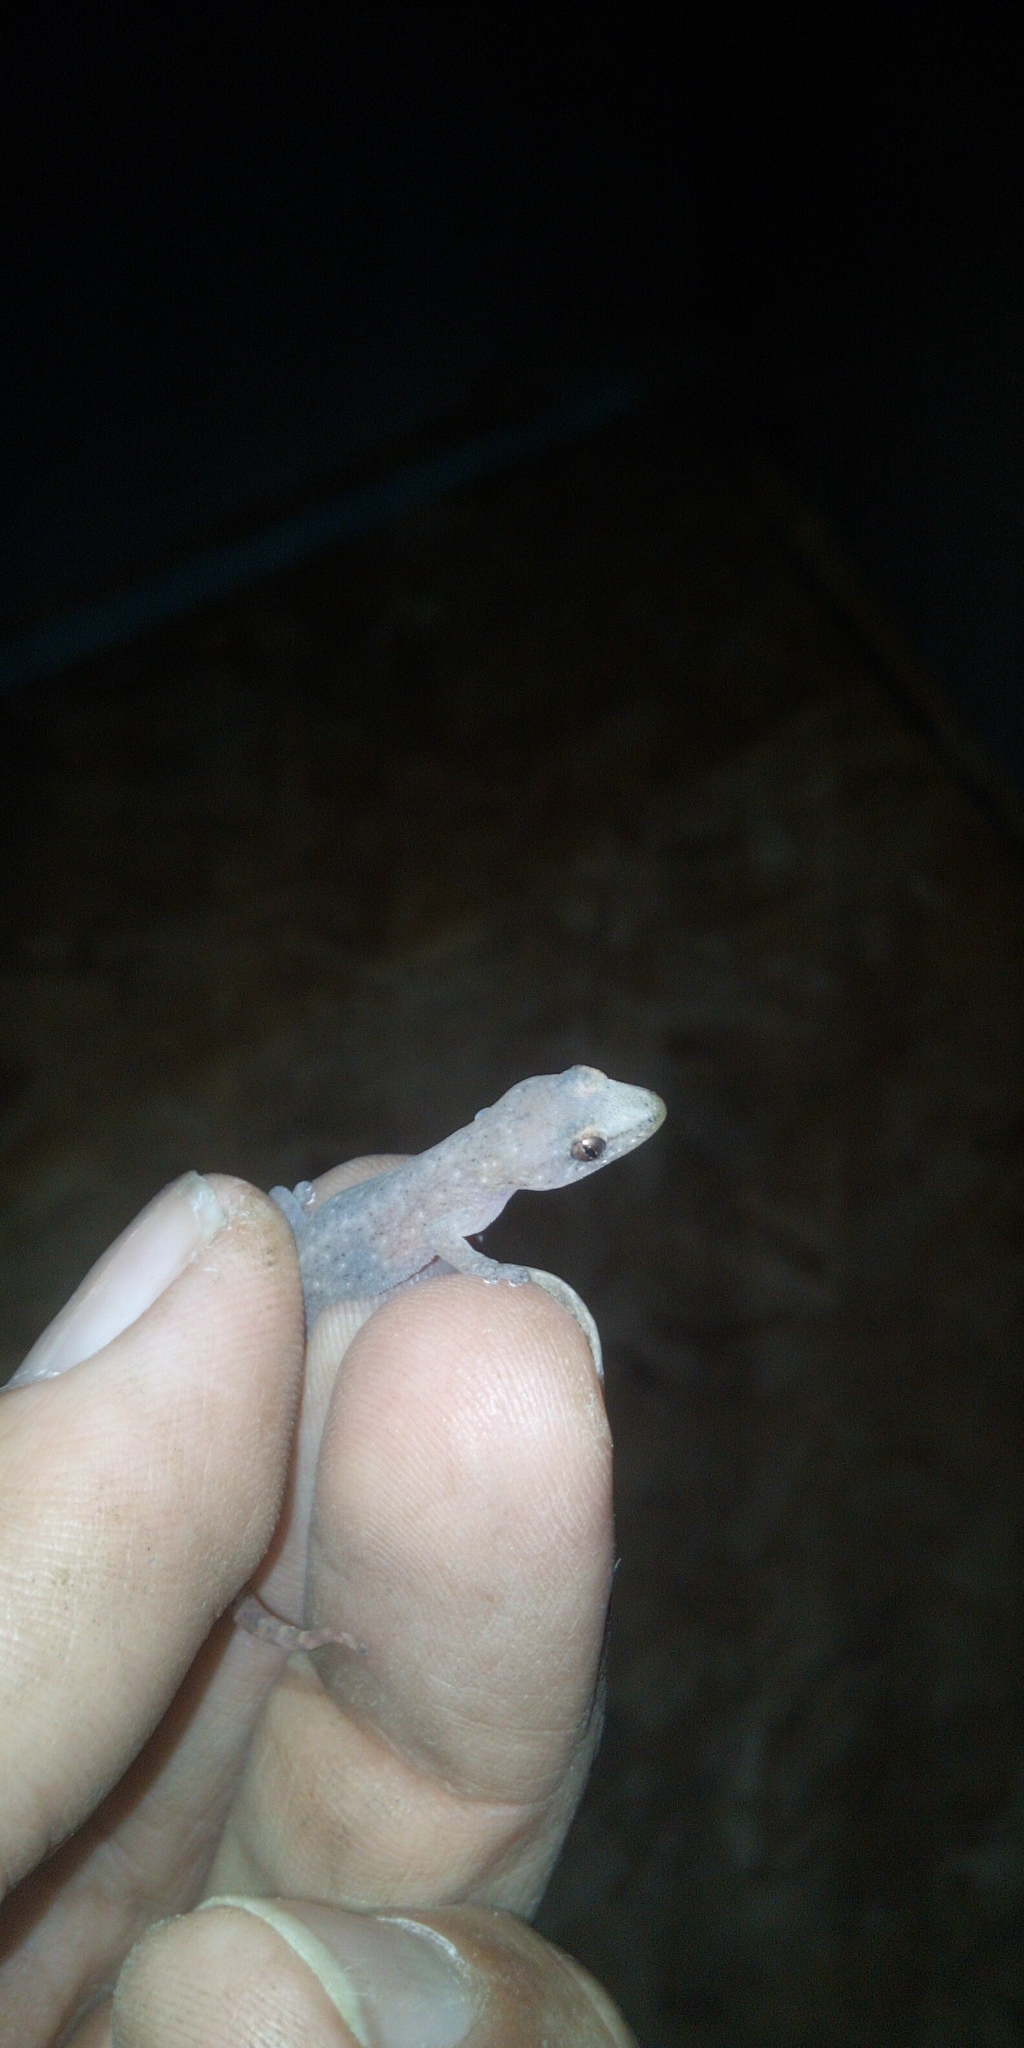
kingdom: Animalia
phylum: Chordata
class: Squamata
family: Gekkonidae
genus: Afrogecko
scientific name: Afrogecko porphyreus
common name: Marbled leaf-toed gecko
